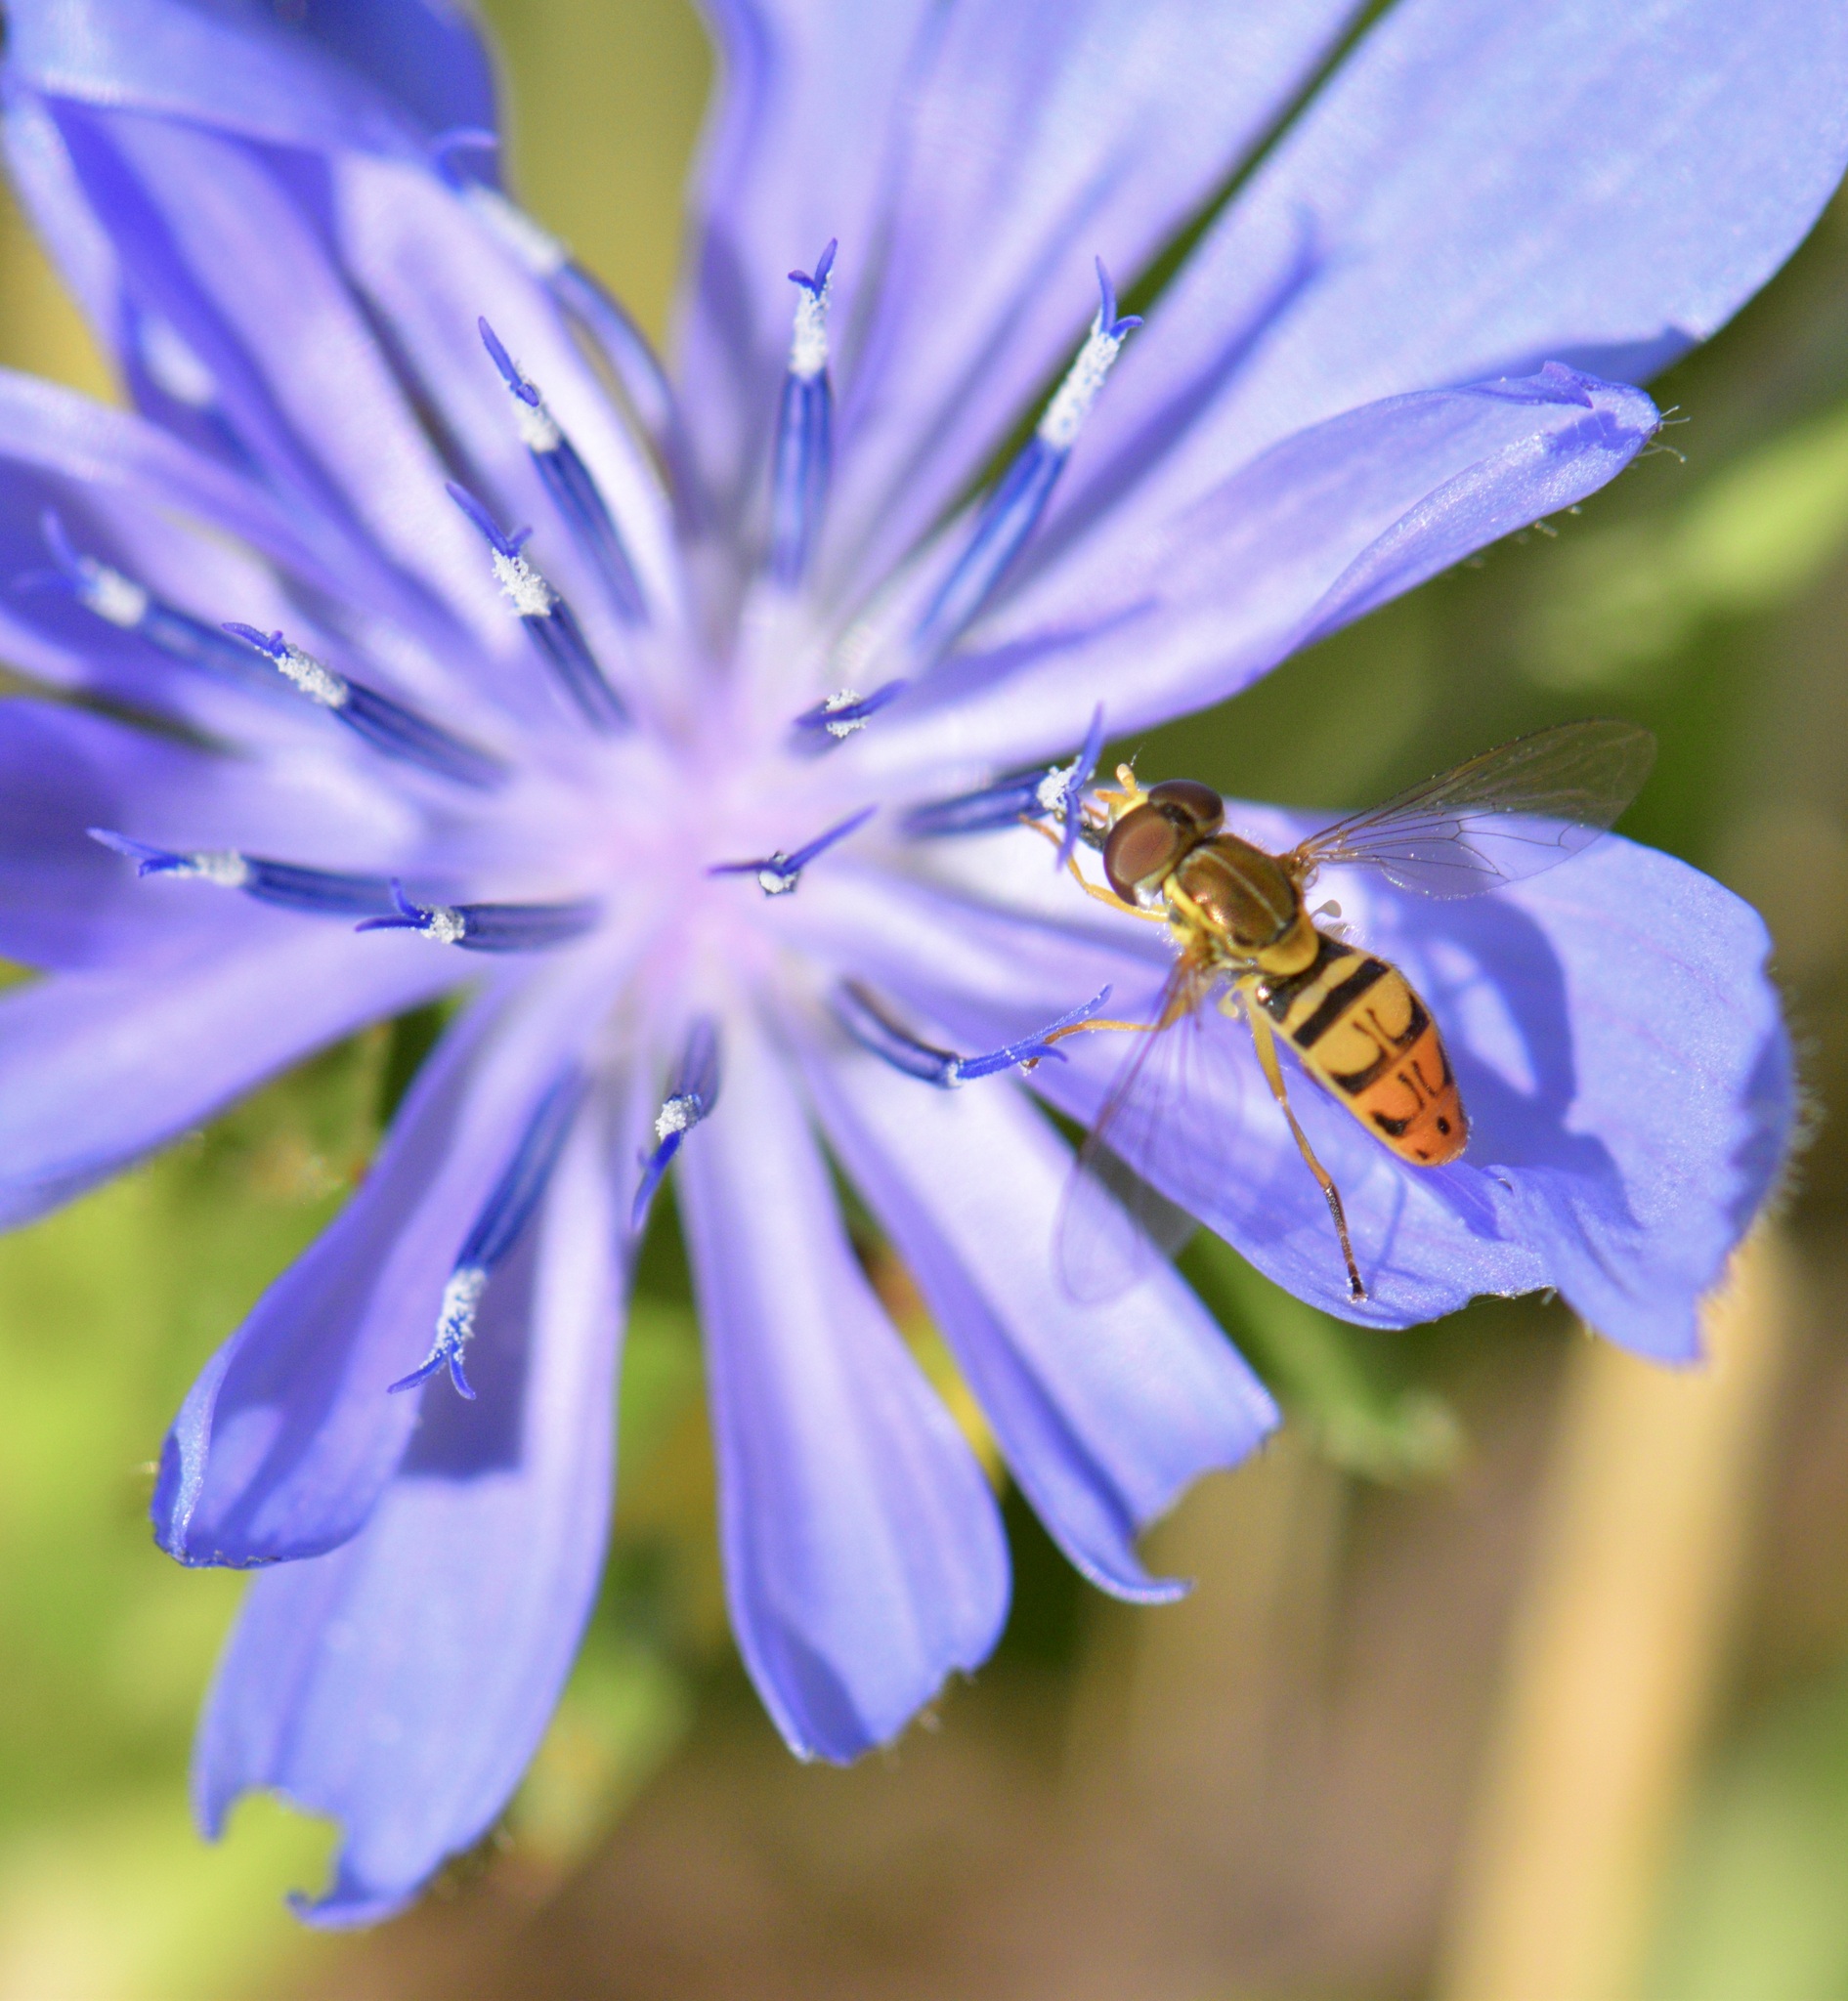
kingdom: Animalia
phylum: Arthropoda
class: Insecta
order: Diptera
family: Syrphidae
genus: Toxomerus
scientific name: Toxomerus marginatus
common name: Syrphid fly
